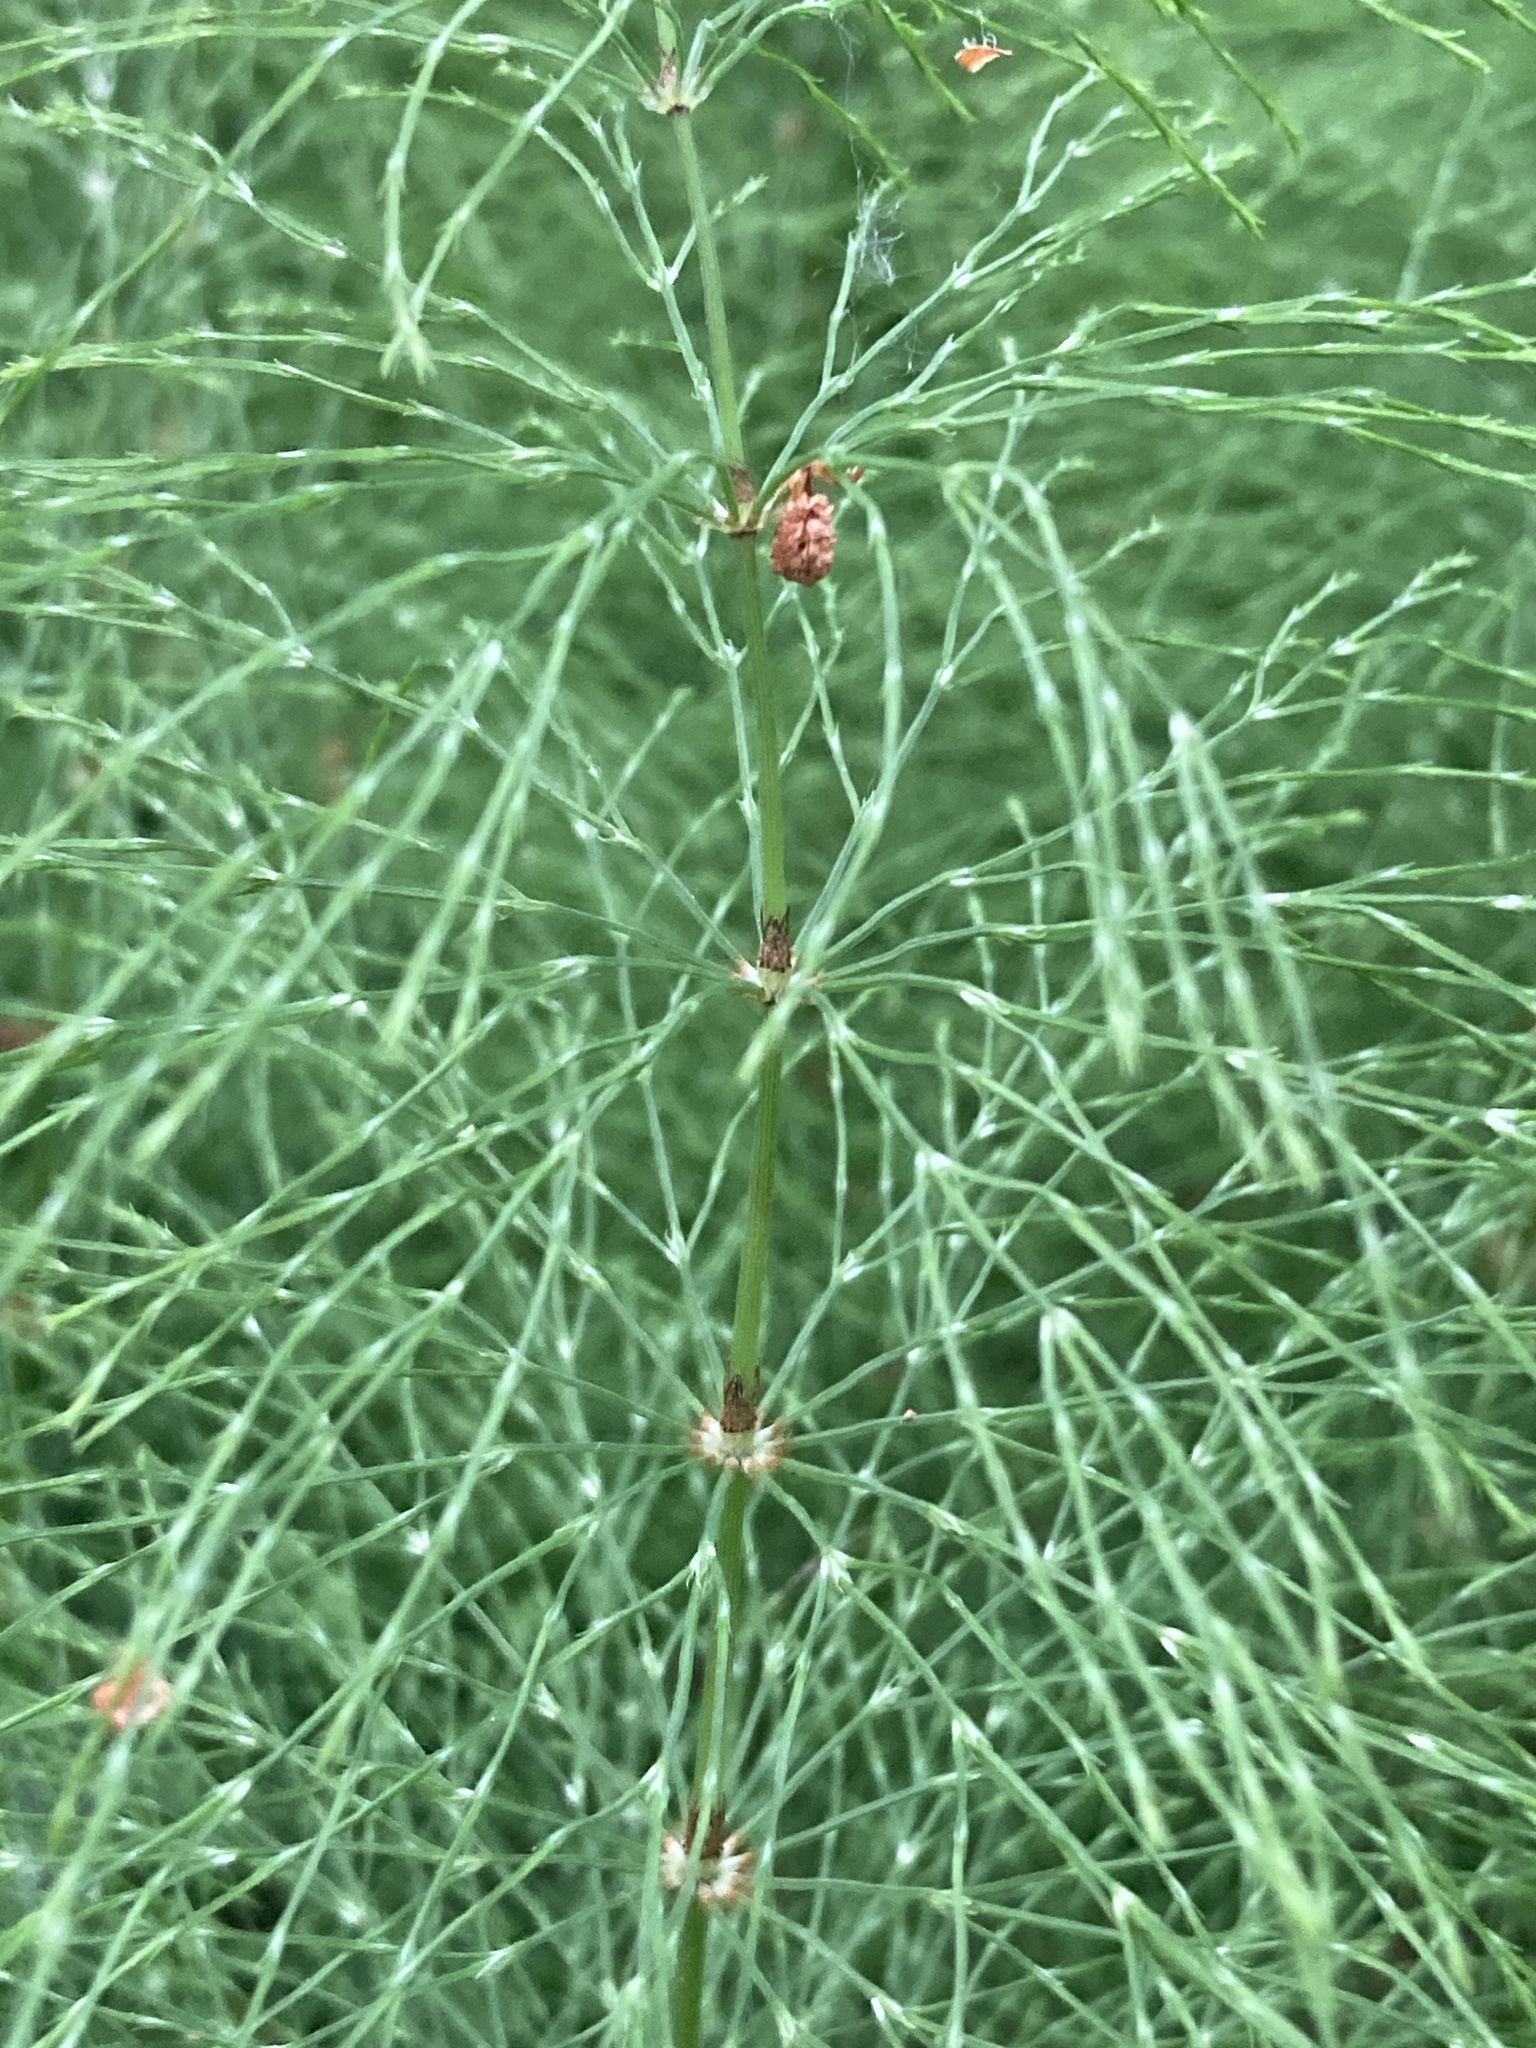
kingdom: Plantae
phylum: Tracheophyta
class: Polypodiopsida
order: Equisetales
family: Equisetaceae
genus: Equisetum
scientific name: Equisetum sylvaticum
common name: Wood horsetail
